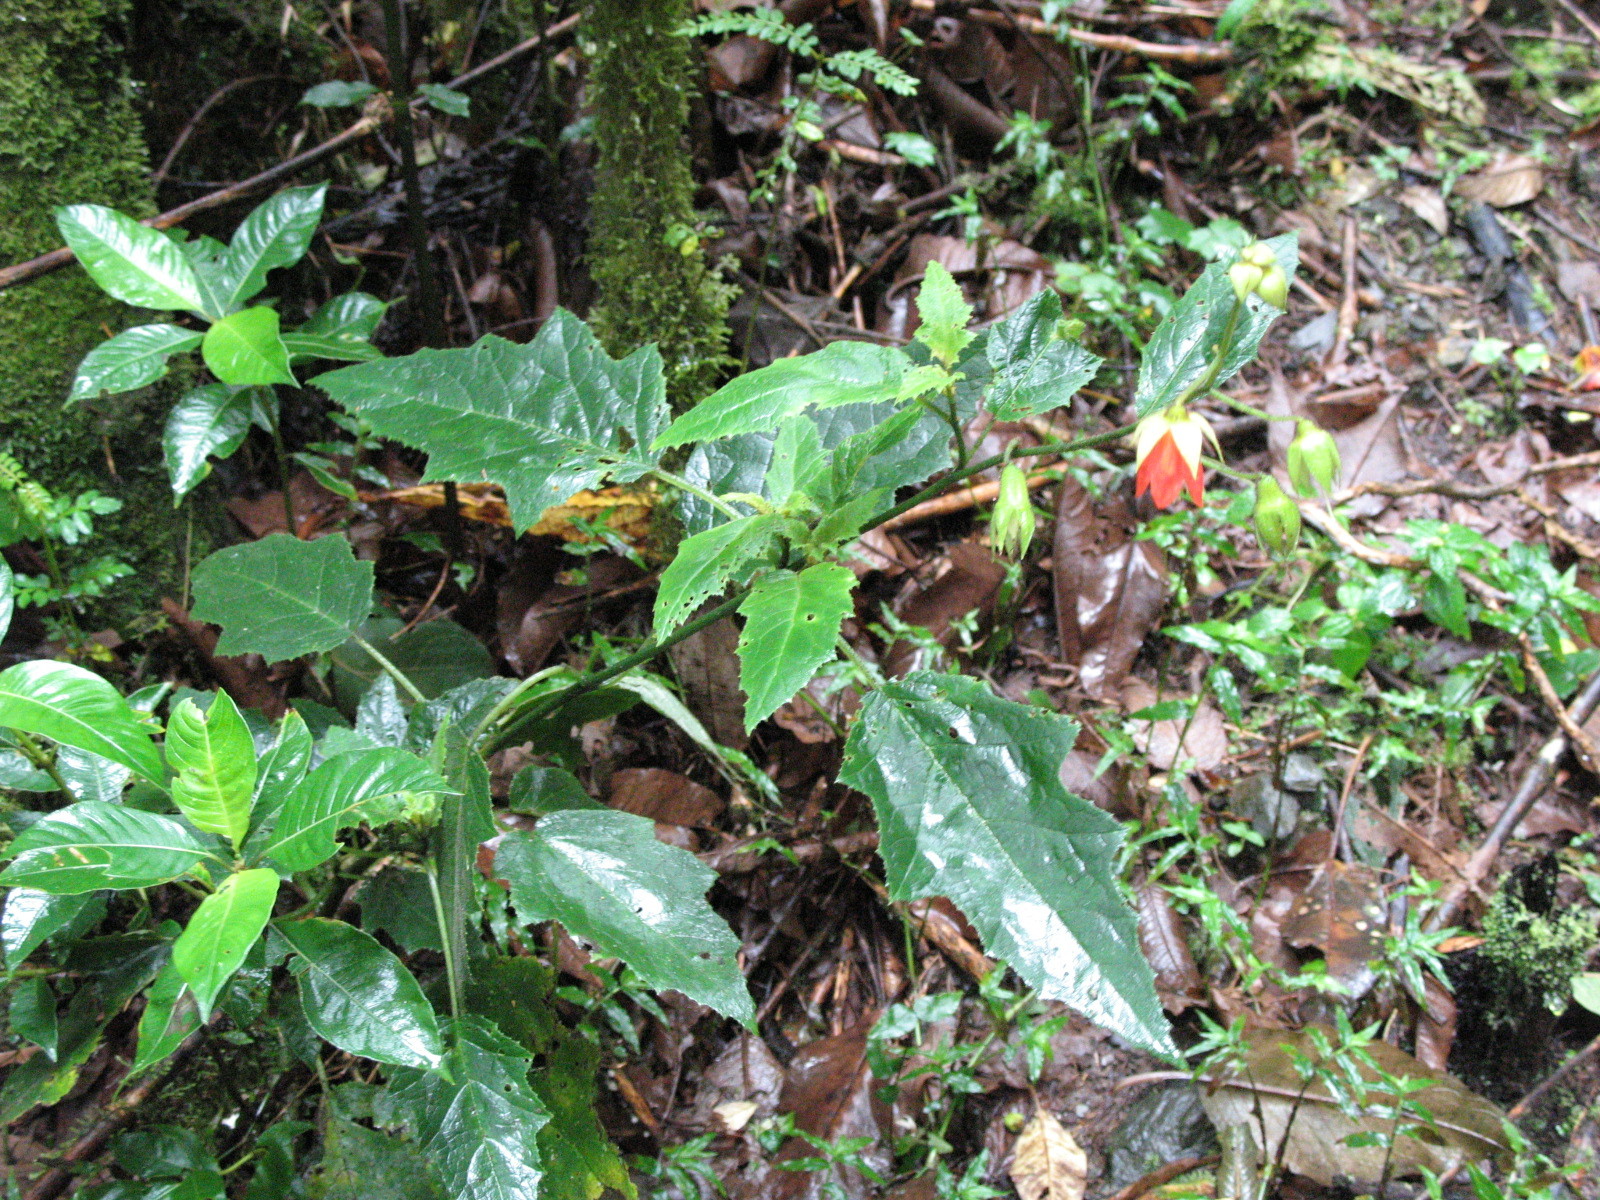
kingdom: Plantae
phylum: Tracheophyta
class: Magnoliopsida
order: Cornales
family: Loasaceae
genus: Nasa
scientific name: Nasa loxensis
